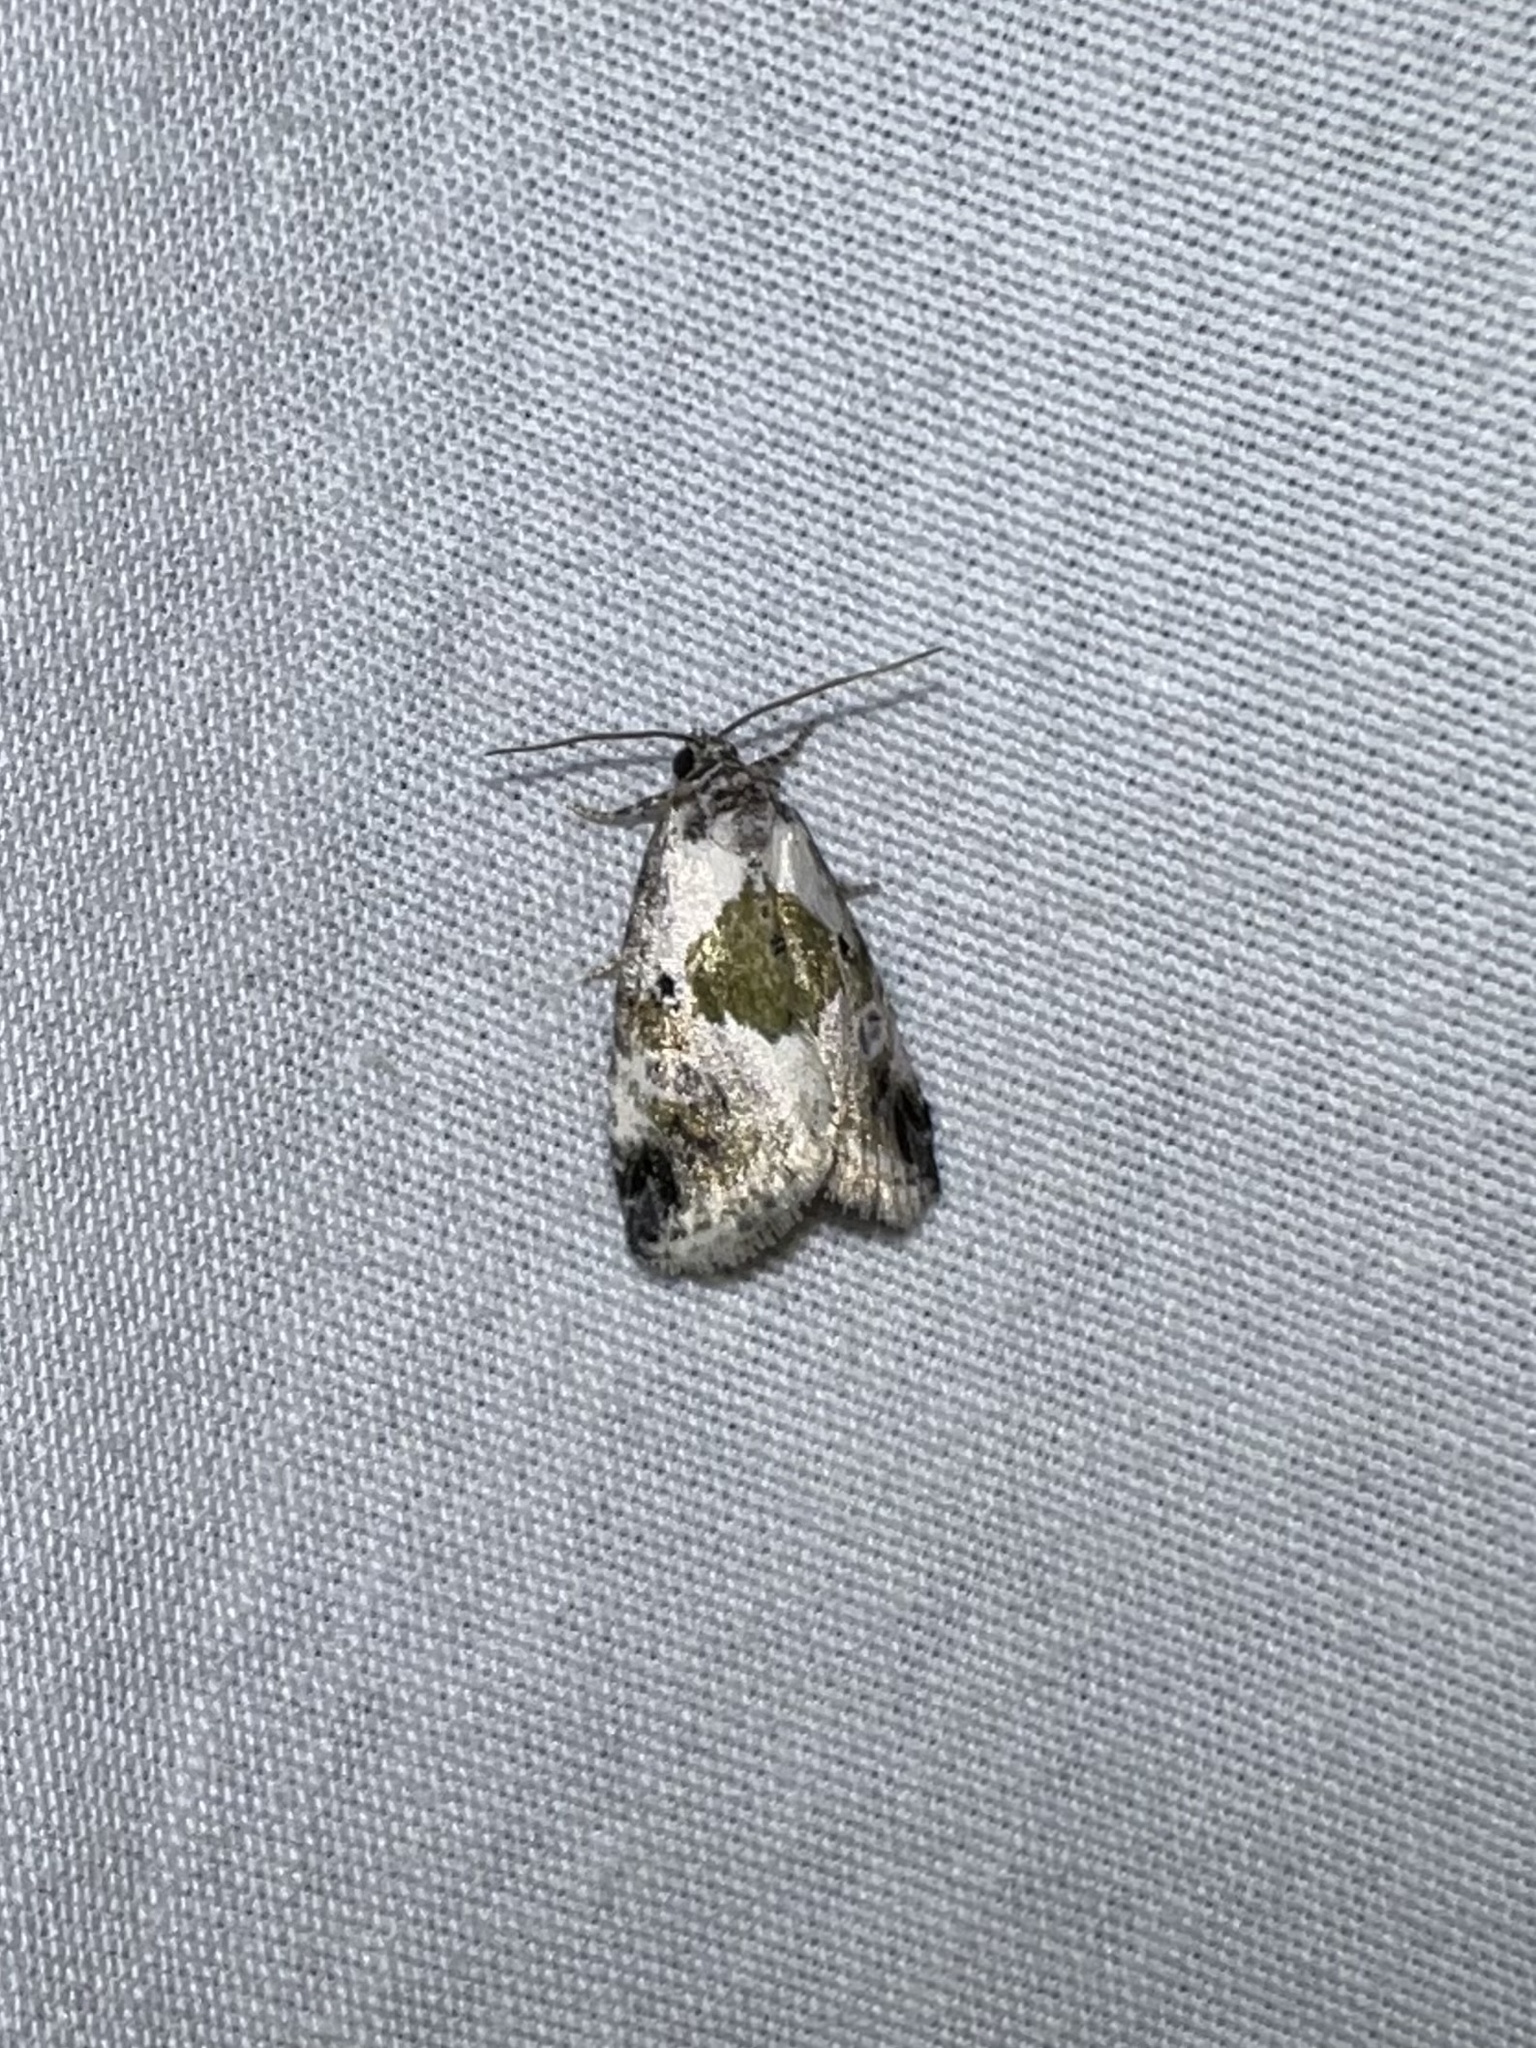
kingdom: Animalia
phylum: Arthropoda
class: Insecta
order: Lepidoptera
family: Noctuidae
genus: Maliattha
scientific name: Maliattha synochitis
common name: Black-dotted glyph
